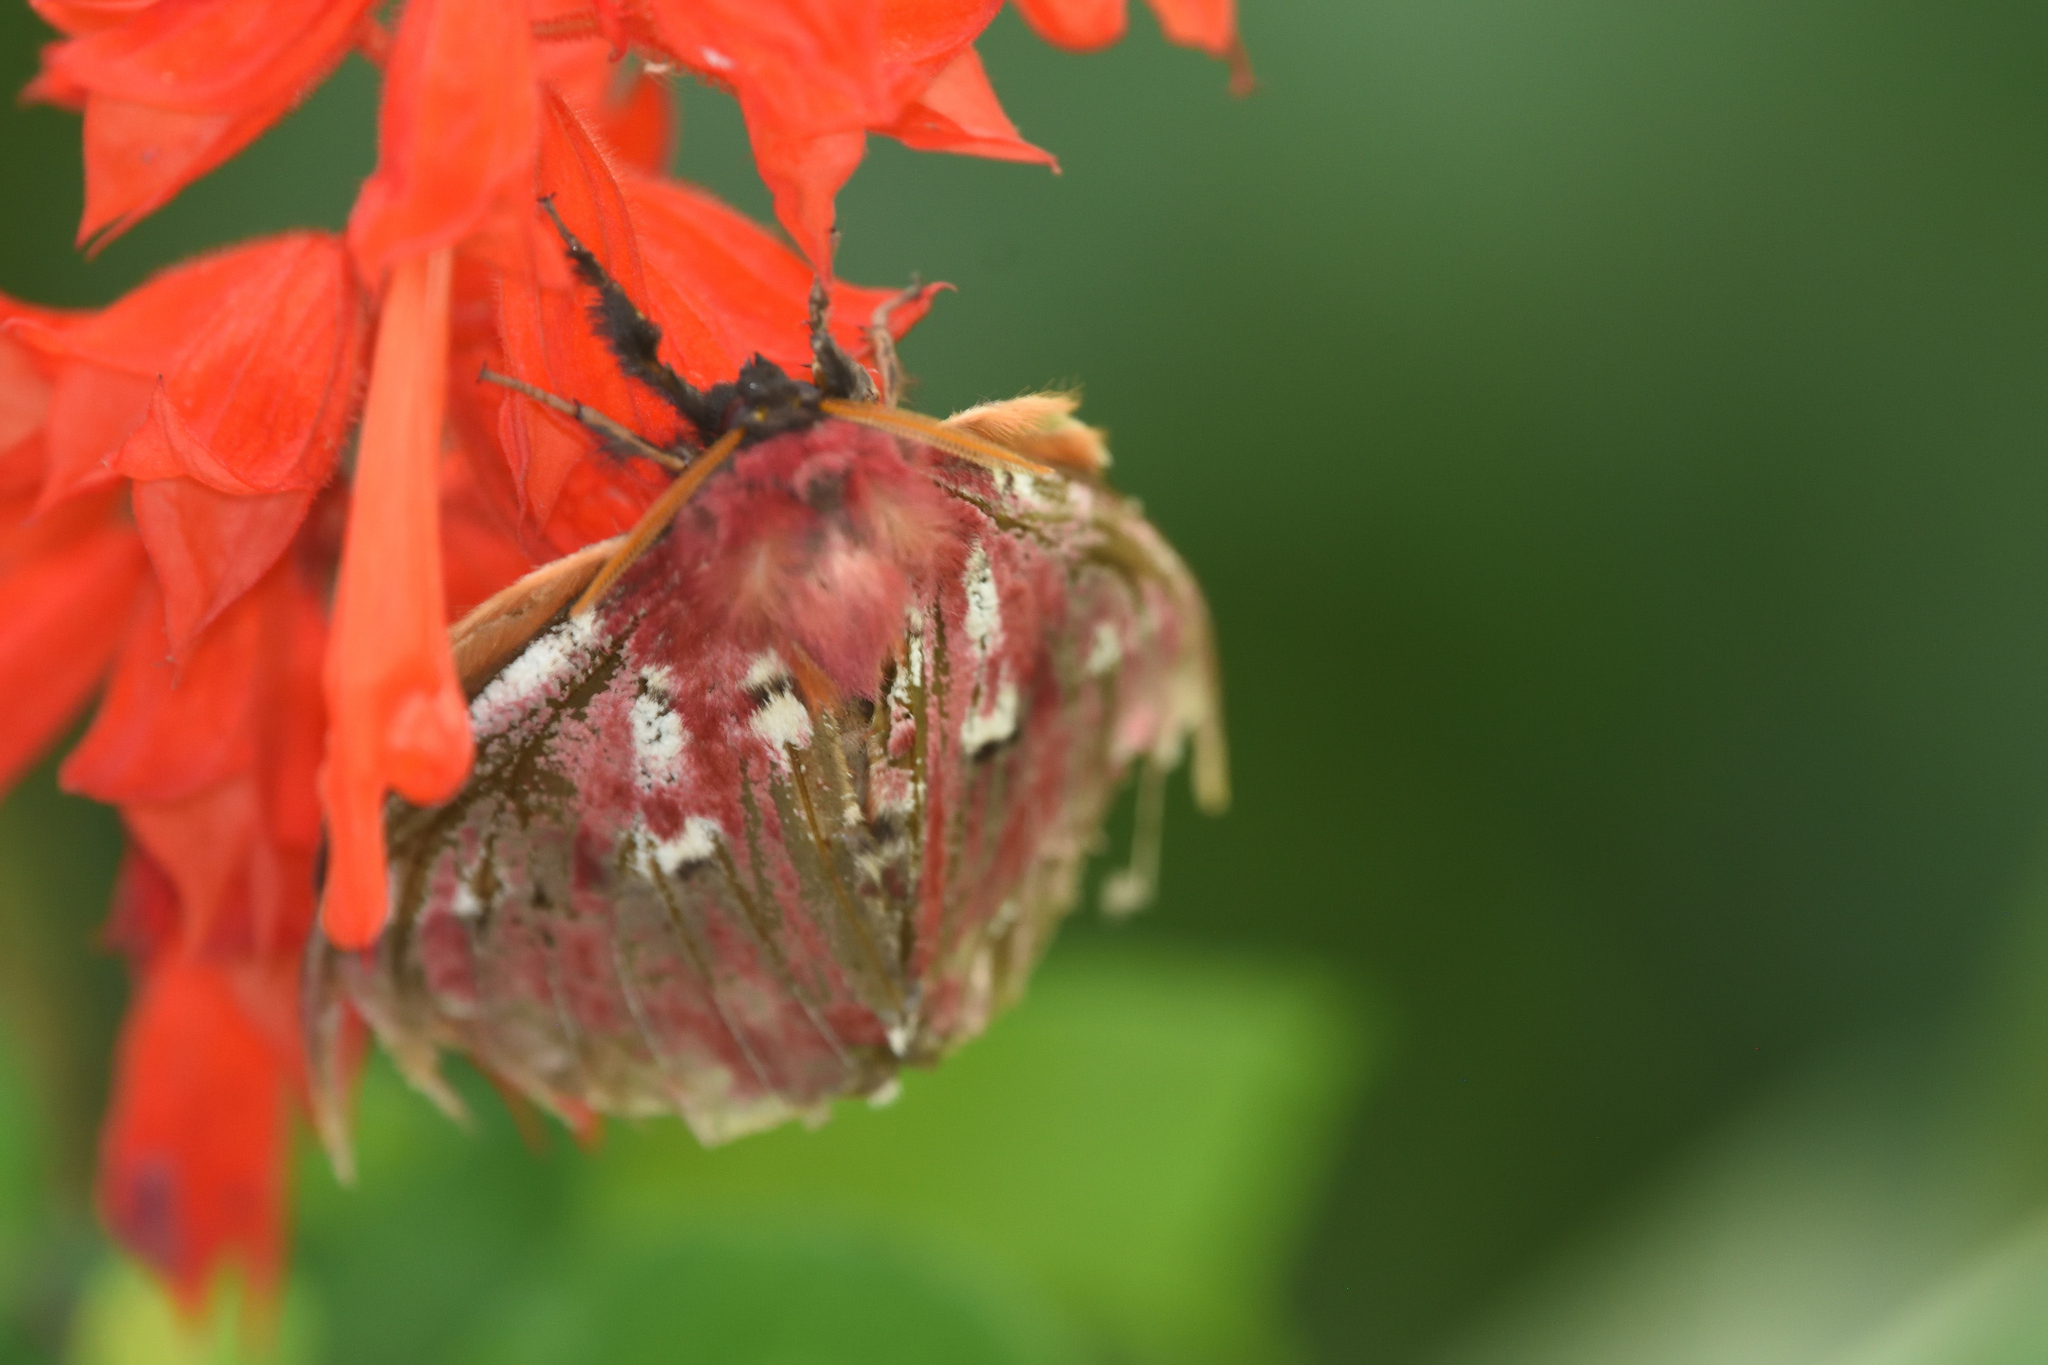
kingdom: Animalia
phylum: Arthropoda
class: Insecta
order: Lepidoptera
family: Saturniidae
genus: Rhodirphia
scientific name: Rhodirphia carminata
